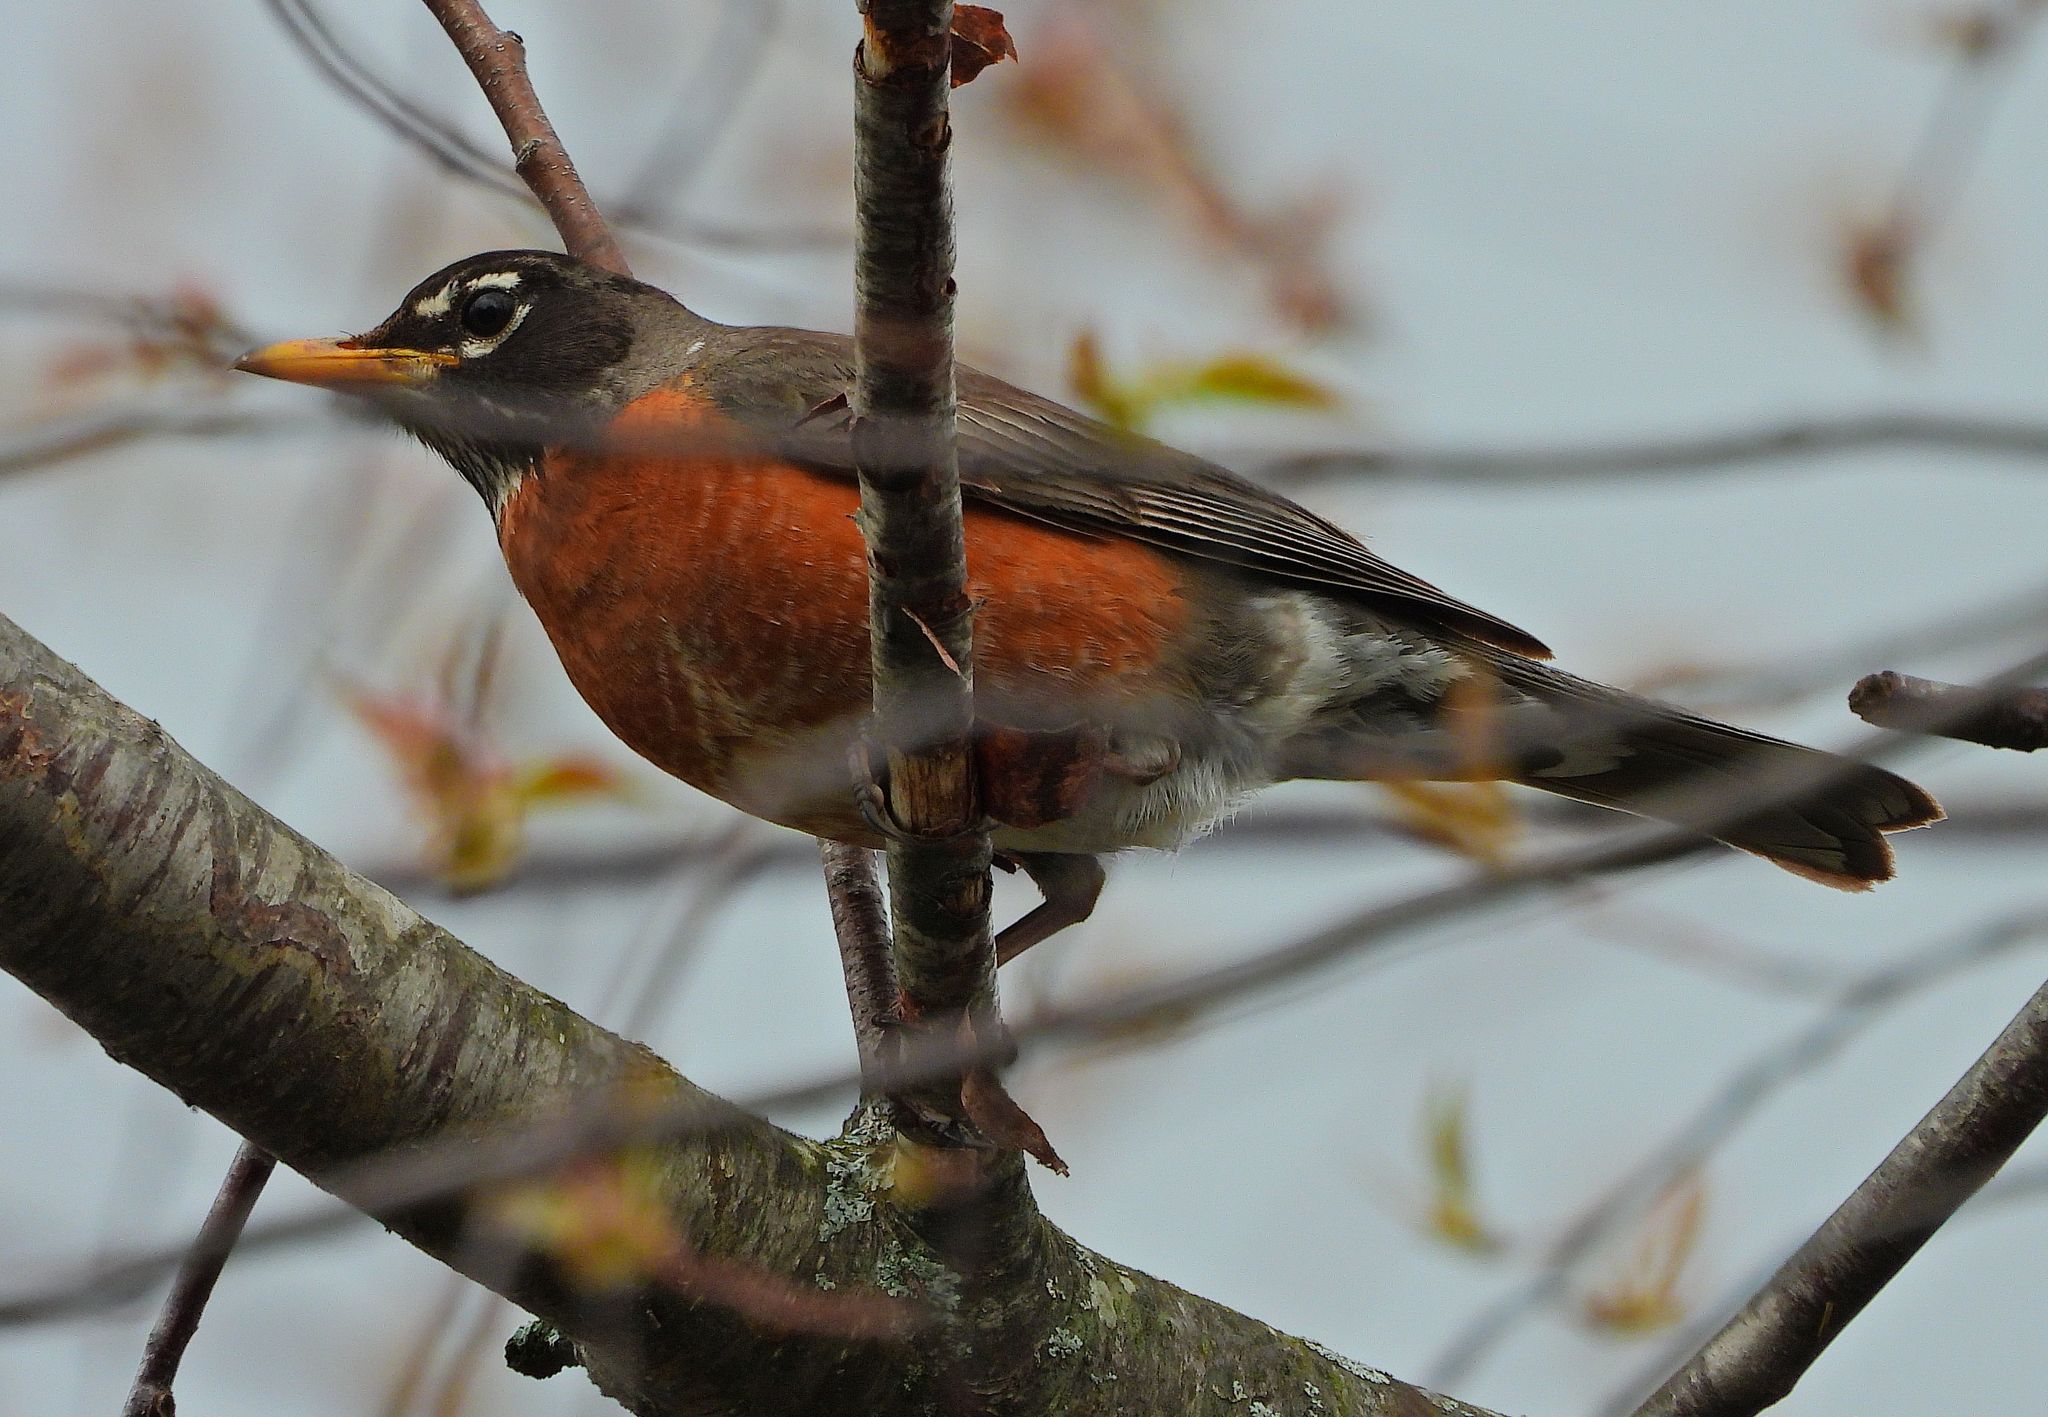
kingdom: Animalia
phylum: Chordata
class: Aves
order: Passeriformes
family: Turdidae
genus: Turdus
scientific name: Turdus migratorius
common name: American robin
